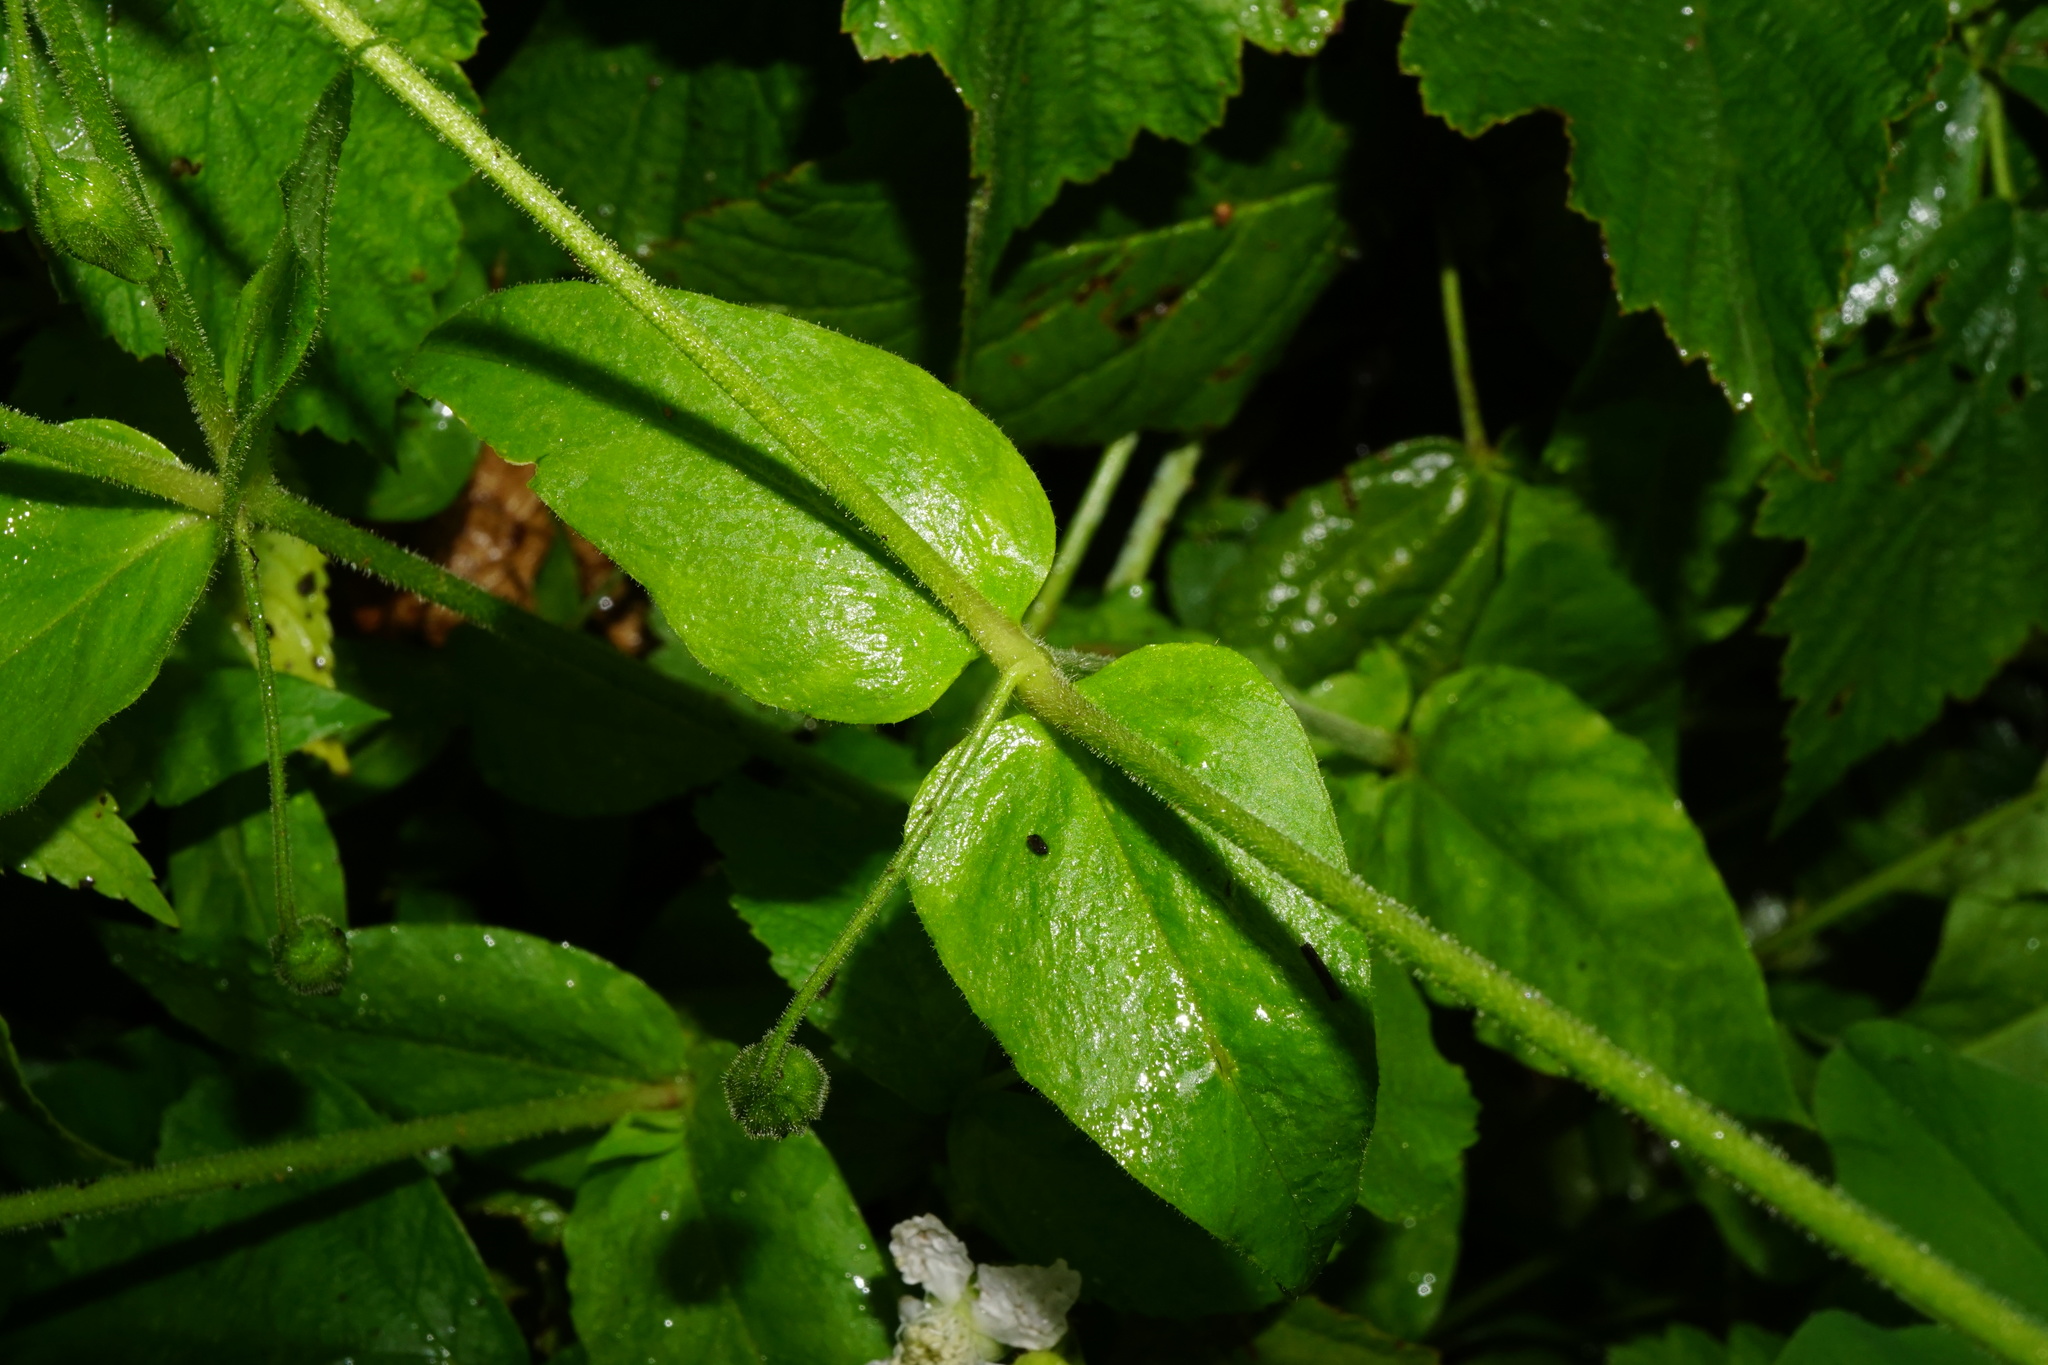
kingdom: Plantae
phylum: Tracheophyta
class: Magnoliopsida
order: Caryophyllales
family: Caryophyllaceae
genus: Stellaria
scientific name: Stellaria aquatica
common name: Water chickweed
